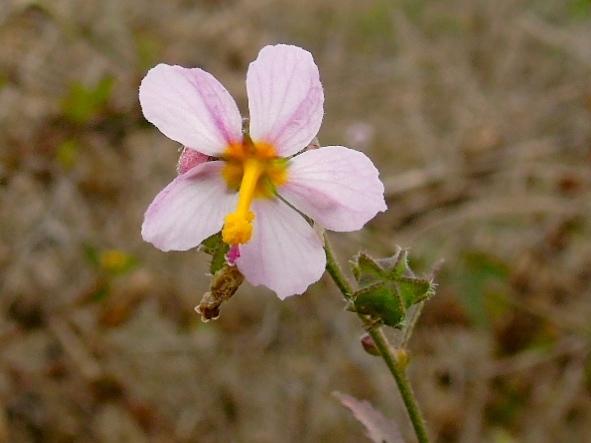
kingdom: Plantae
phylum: Tracheophyta
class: Magnoliopsida
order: Malvales
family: Malvaceae
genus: Kosteletzkya
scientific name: Kosteletzkya depressa
